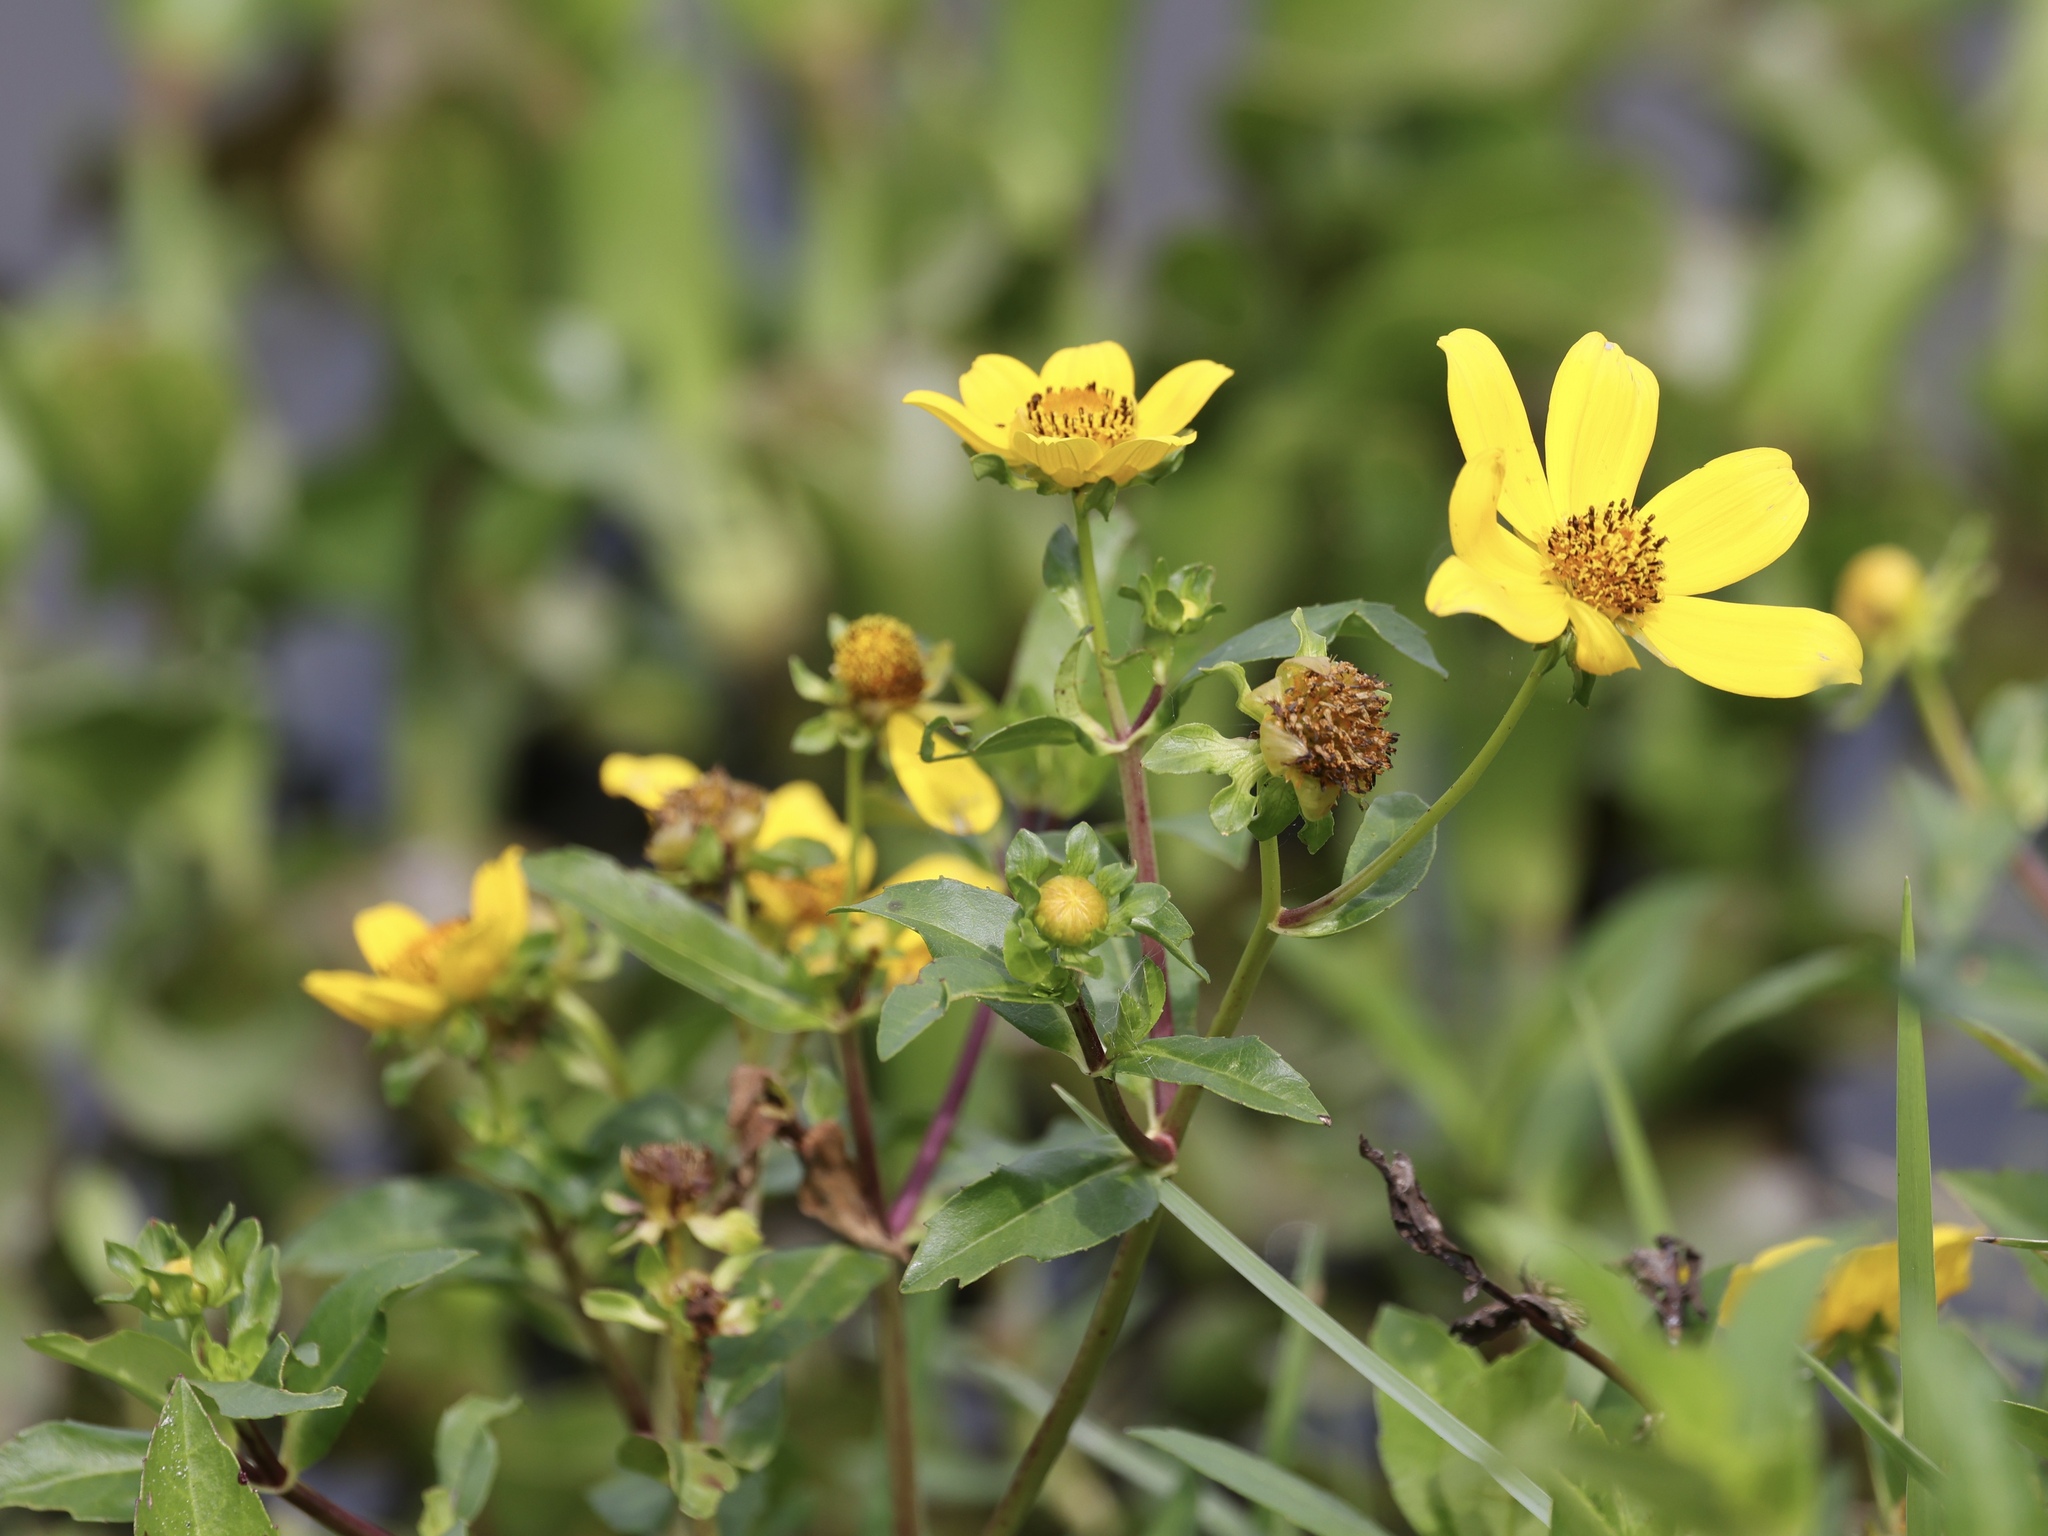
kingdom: Plantae
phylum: Tracheophyta
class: Magnoliopsida
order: Asterales
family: Asteraceae
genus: Bidens
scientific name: Bidens laevis
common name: Larger bur-marigold
